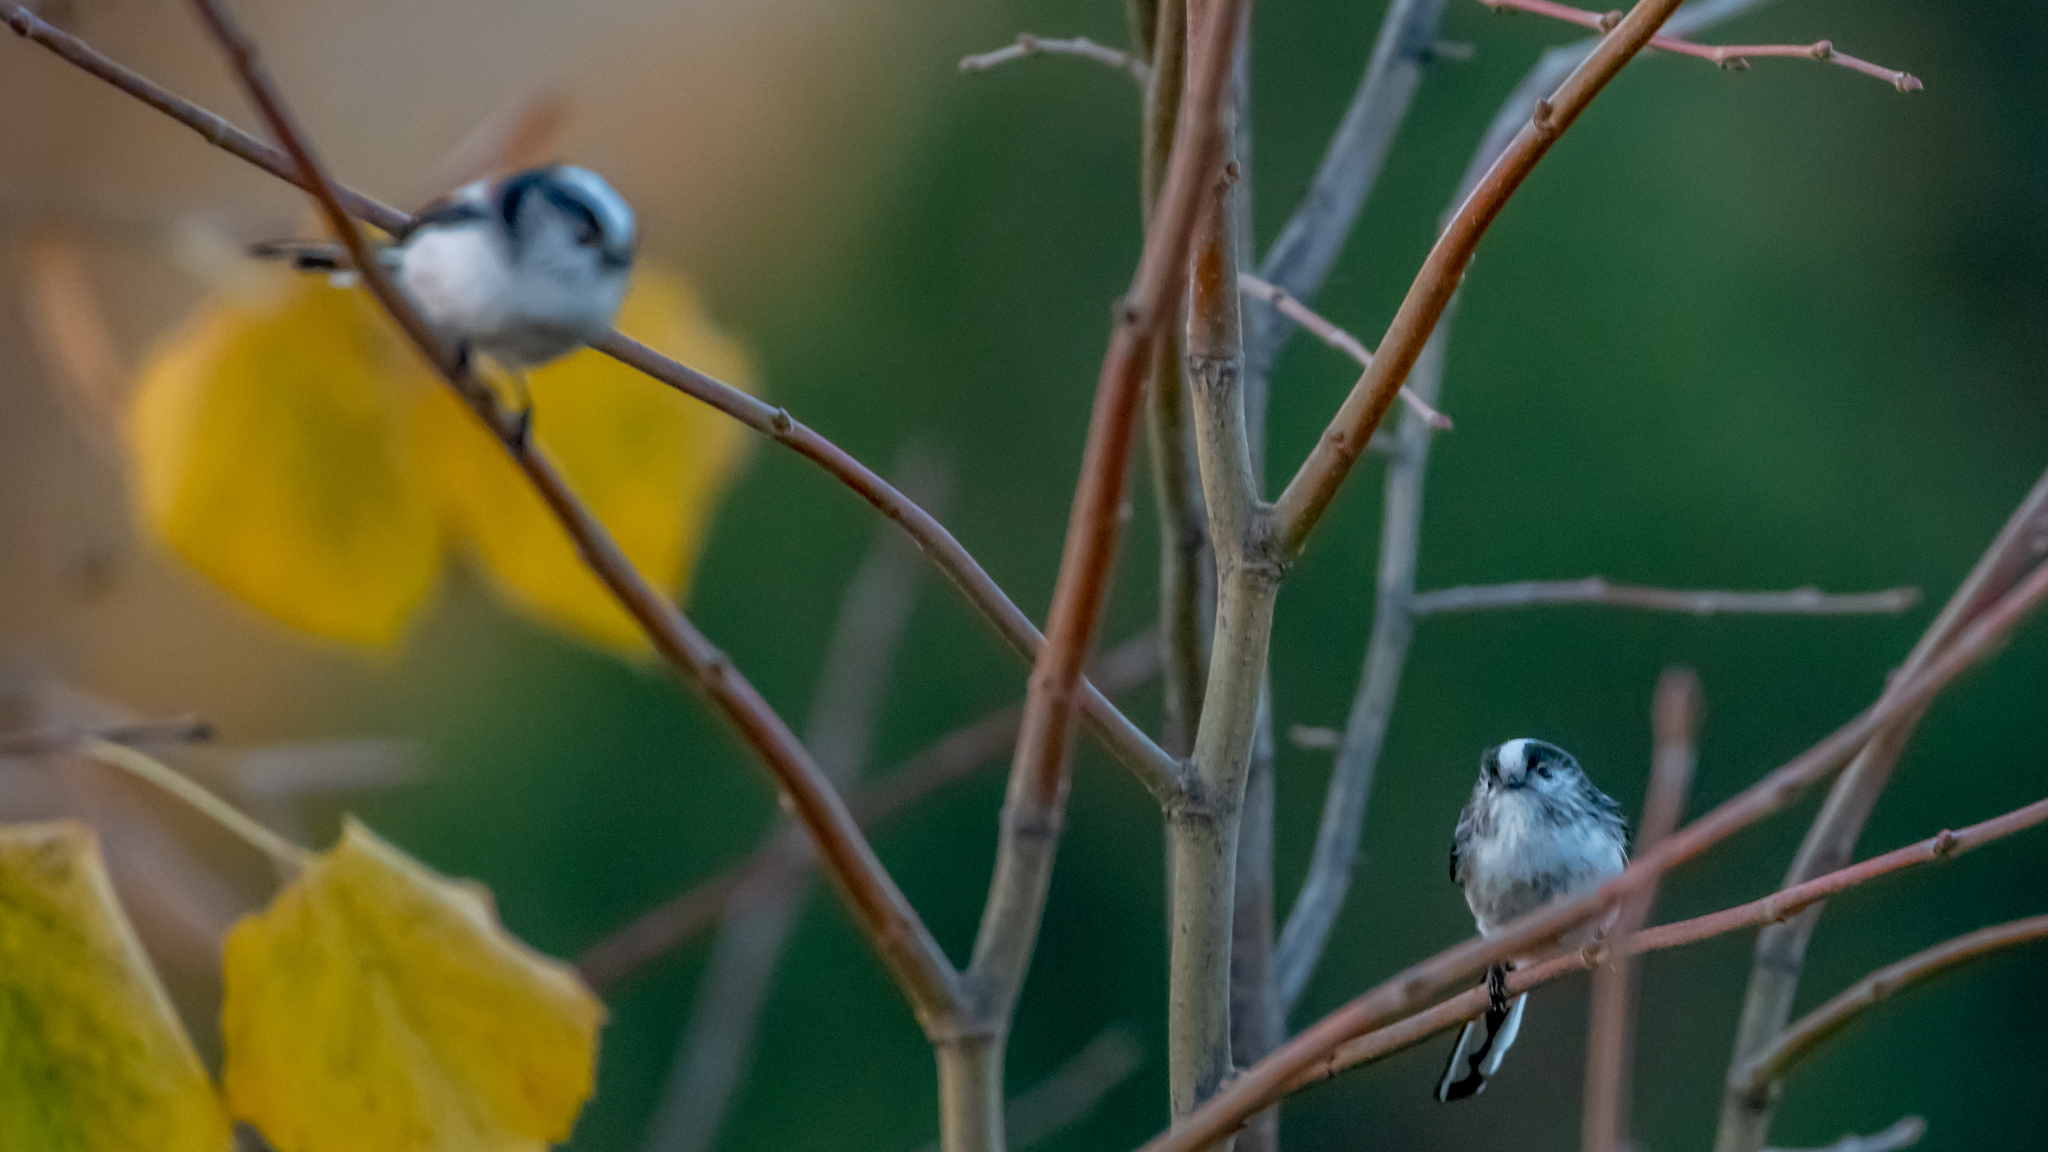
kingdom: Animalia
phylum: Chordata
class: Aves
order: Passeriformes
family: Aegithalidae
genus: Aegithalos
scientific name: Aegithalos caudatus
